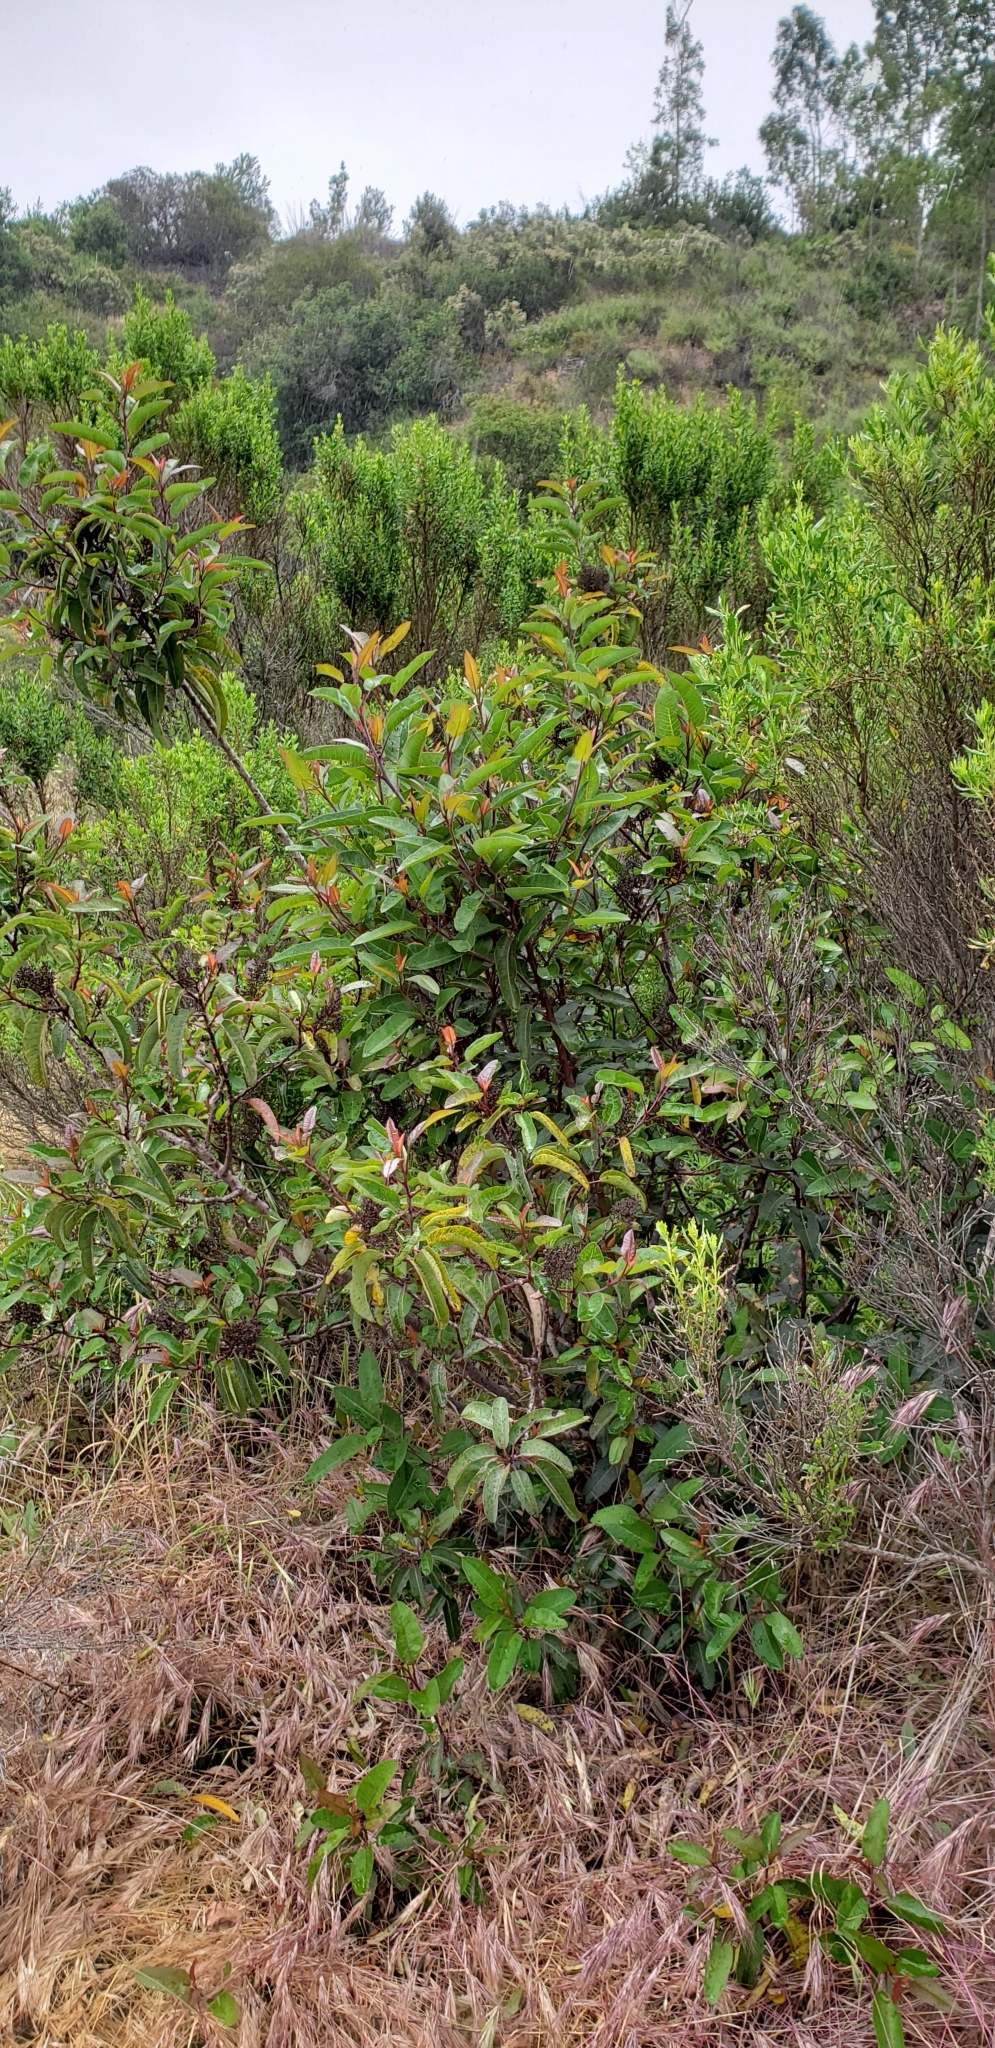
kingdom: Plantae
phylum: Tracheophyta
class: Magnoliopsida
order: Sapindales
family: Anacardiaceae
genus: Malosma
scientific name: Malosma laurina
